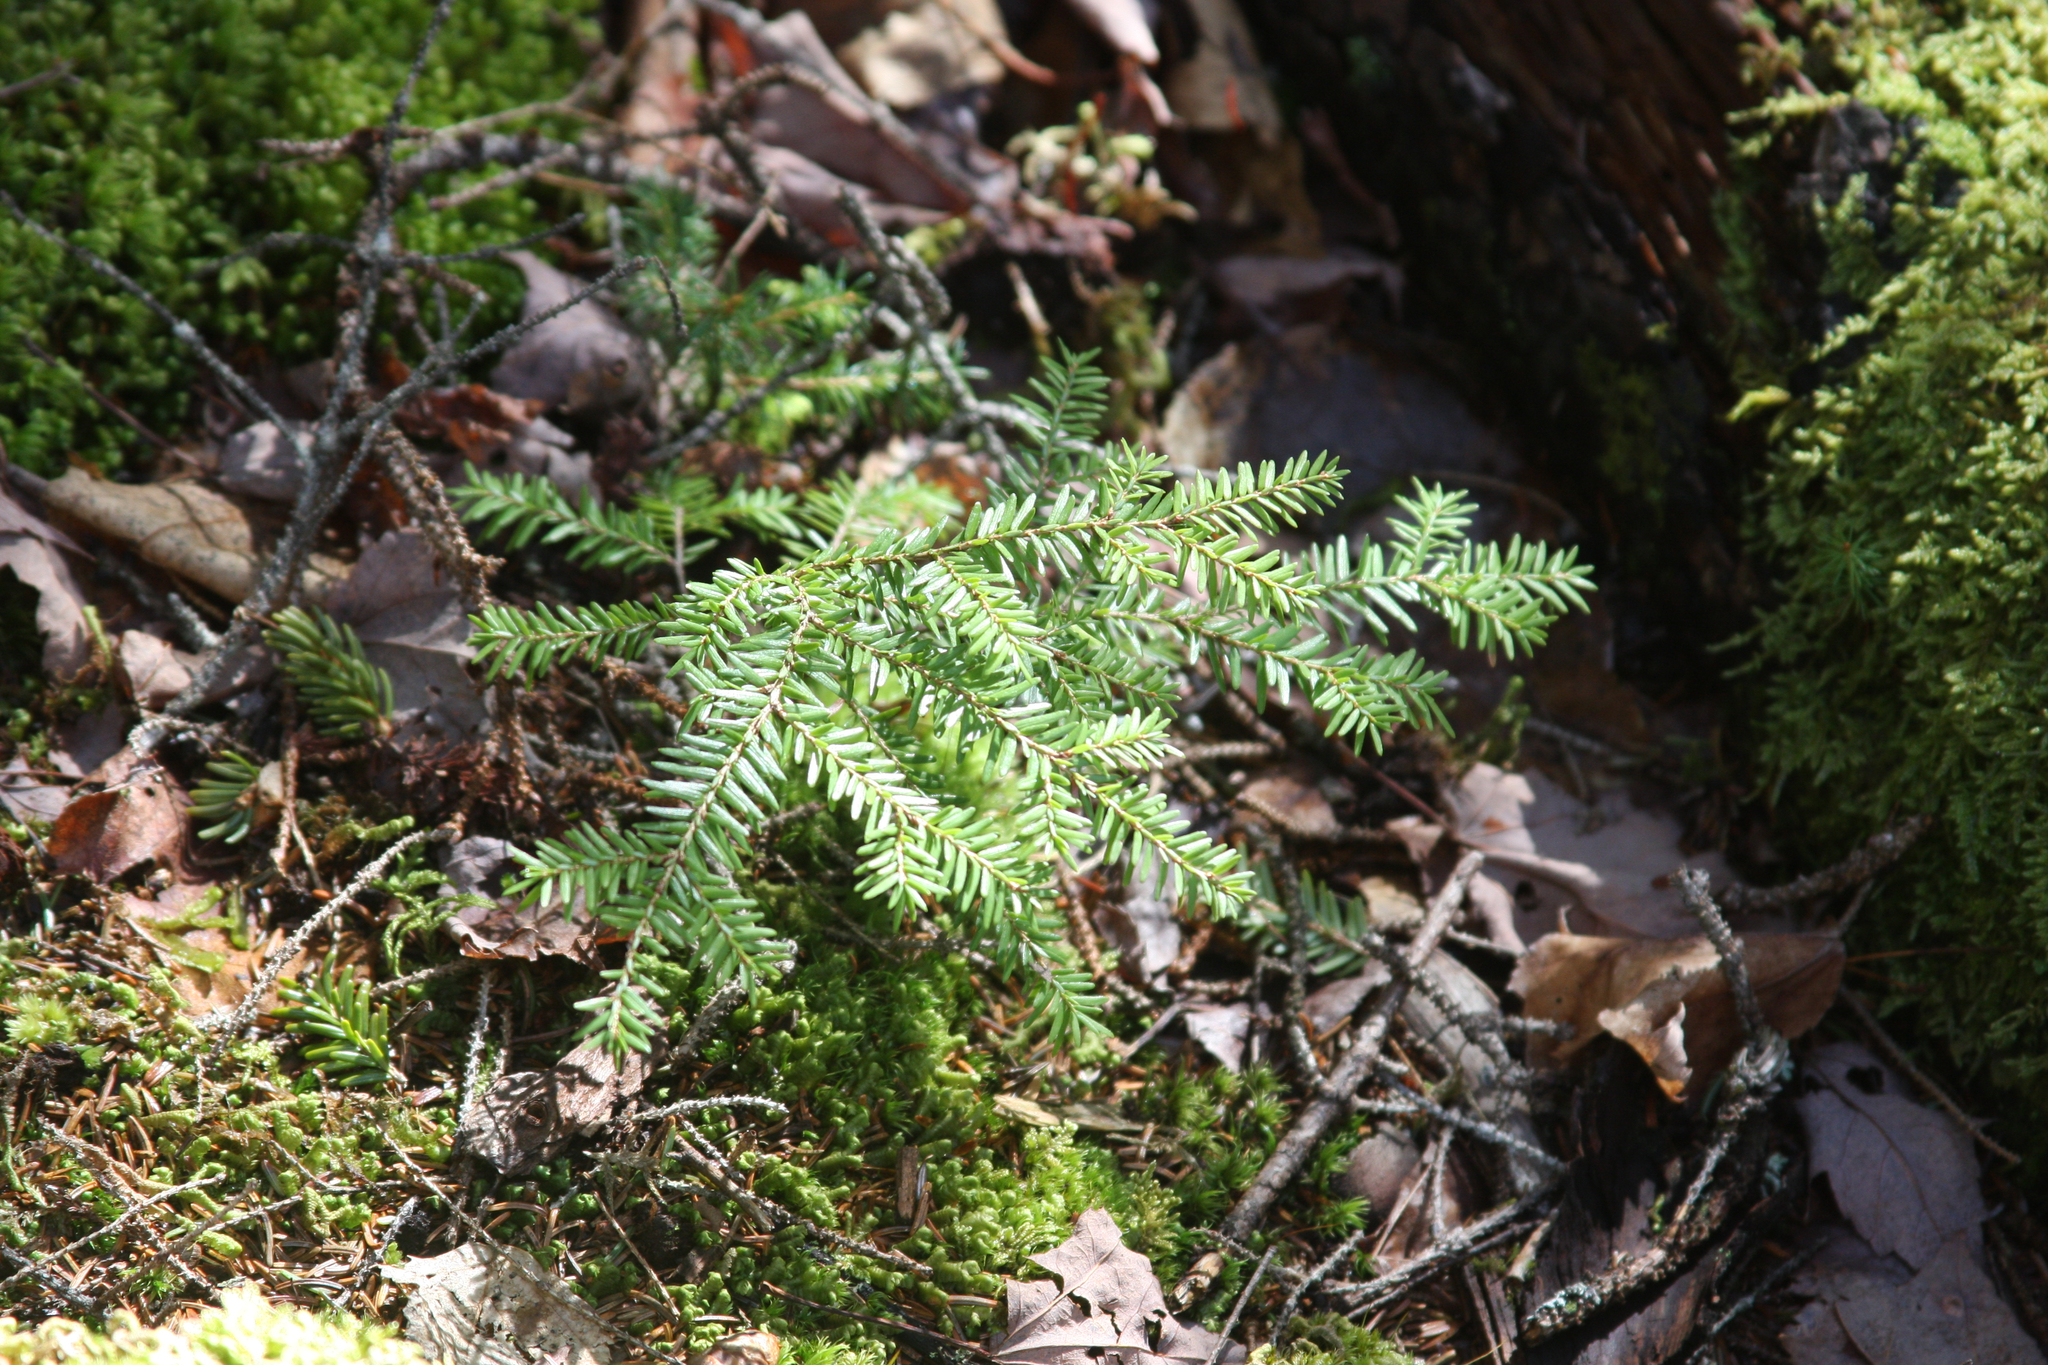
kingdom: Plantae
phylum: Tracheophyta
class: Pinopsida
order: Pinales
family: Pinaceae
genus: Tsuga
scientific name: Tsuga canadensis
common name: Eastern hemlock
